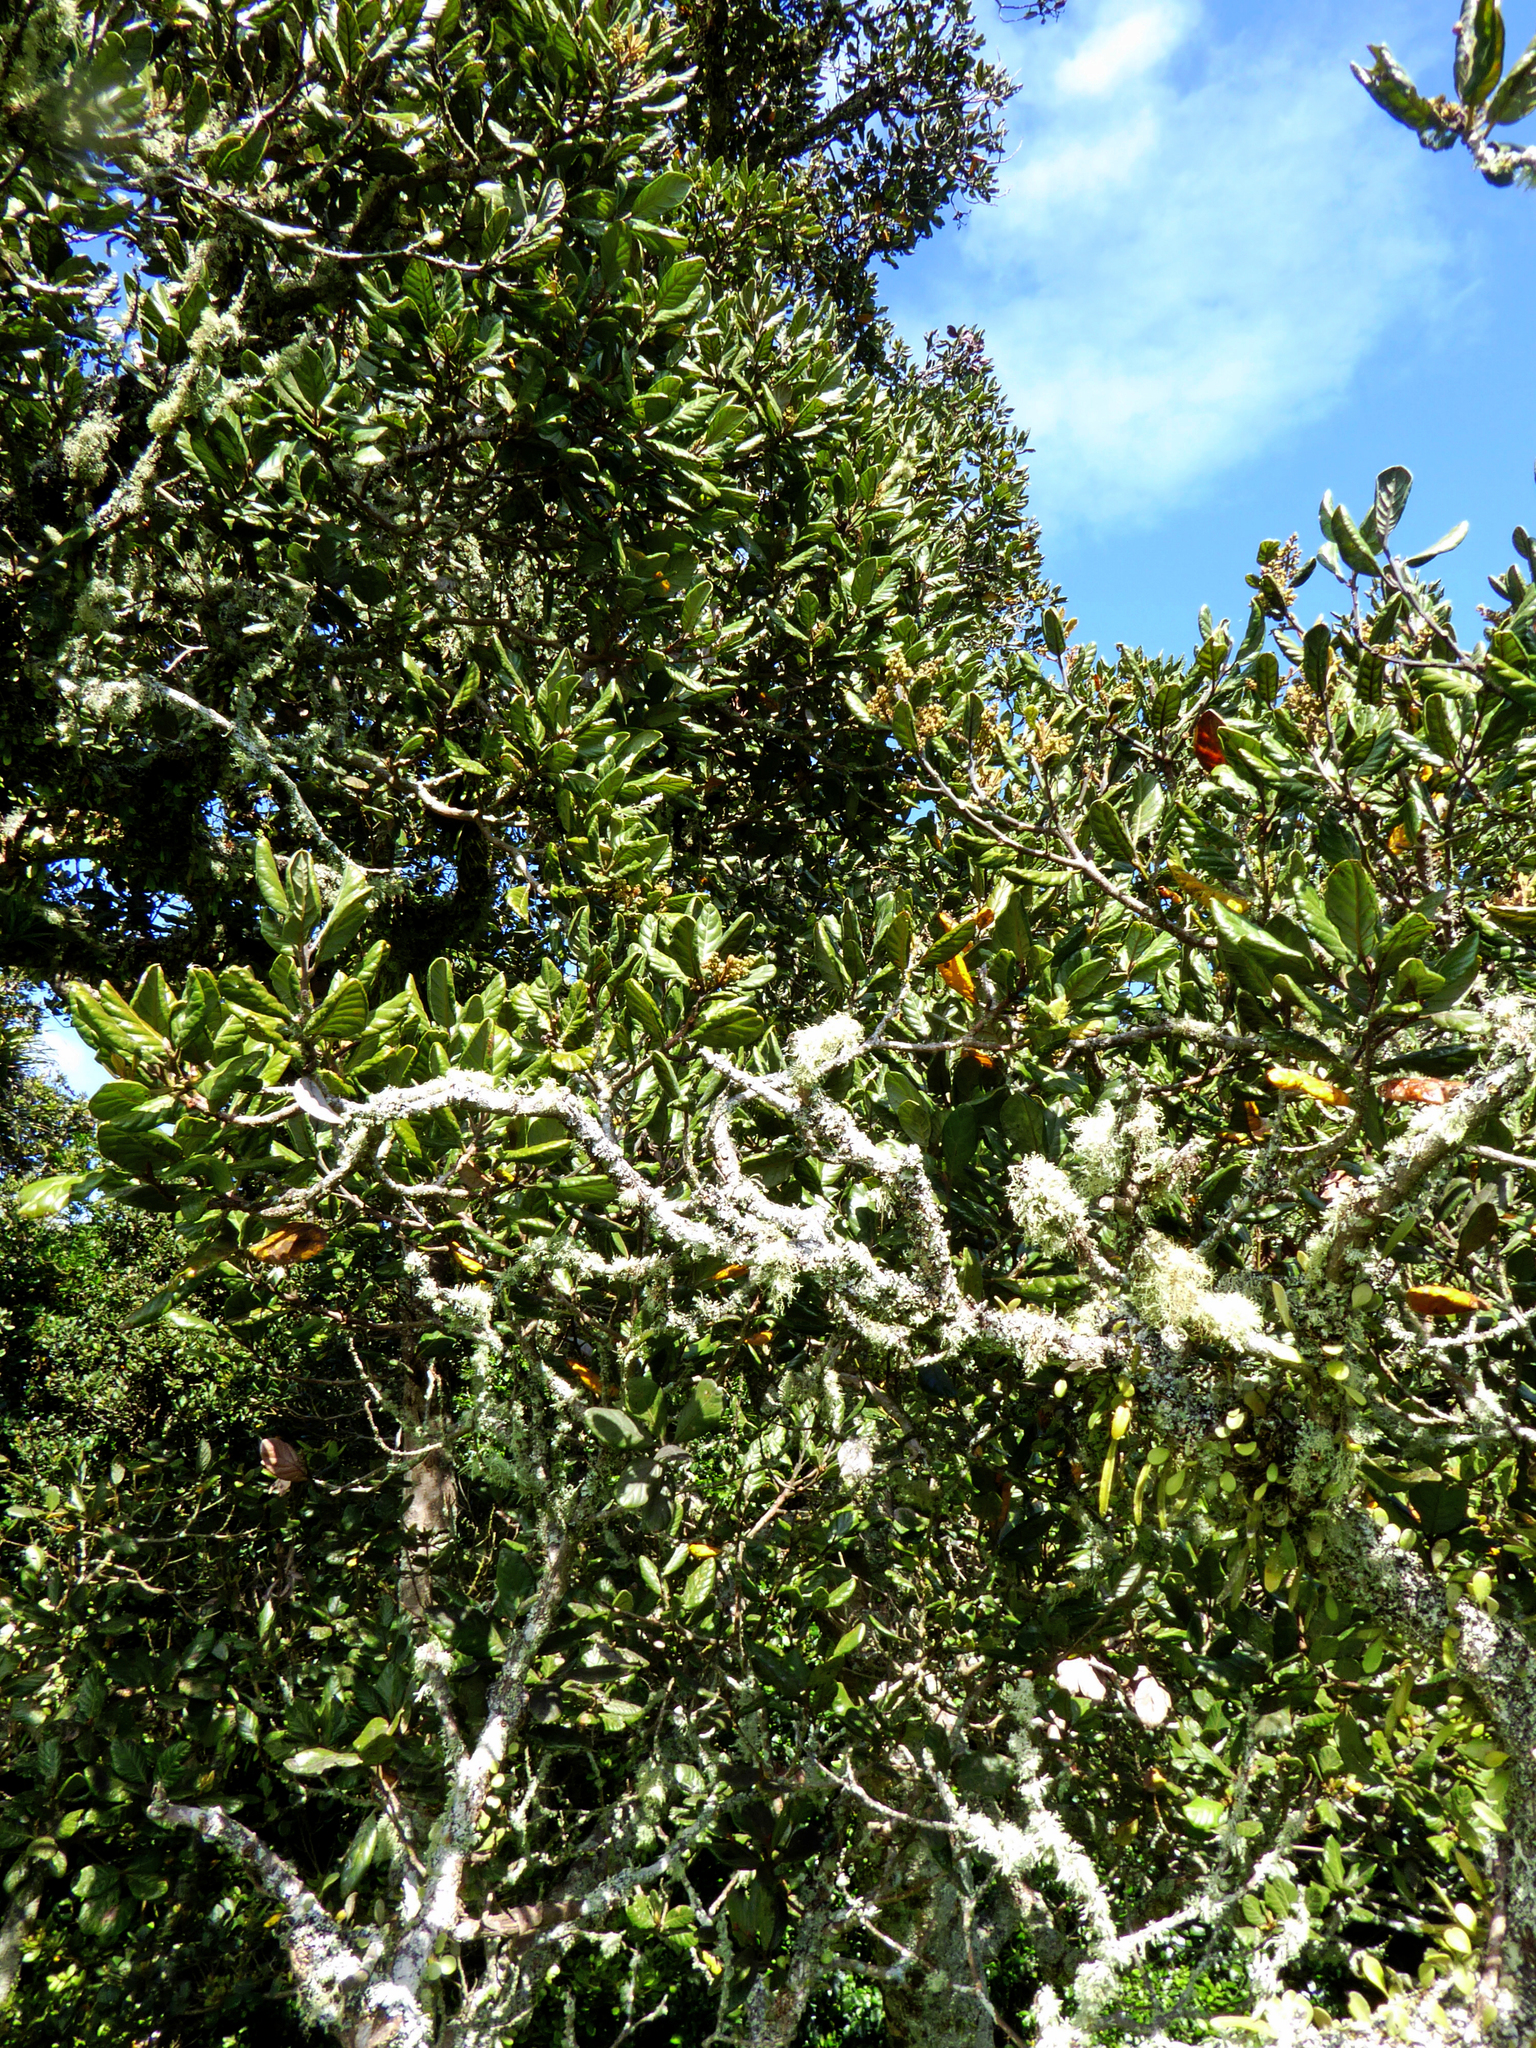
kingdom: Plantae
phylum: Tracheophyta
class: Magnoliopsida
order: Laurales
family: Lauraceae
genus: Beilschmiedia
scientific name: Beilschmiedia tarairi
